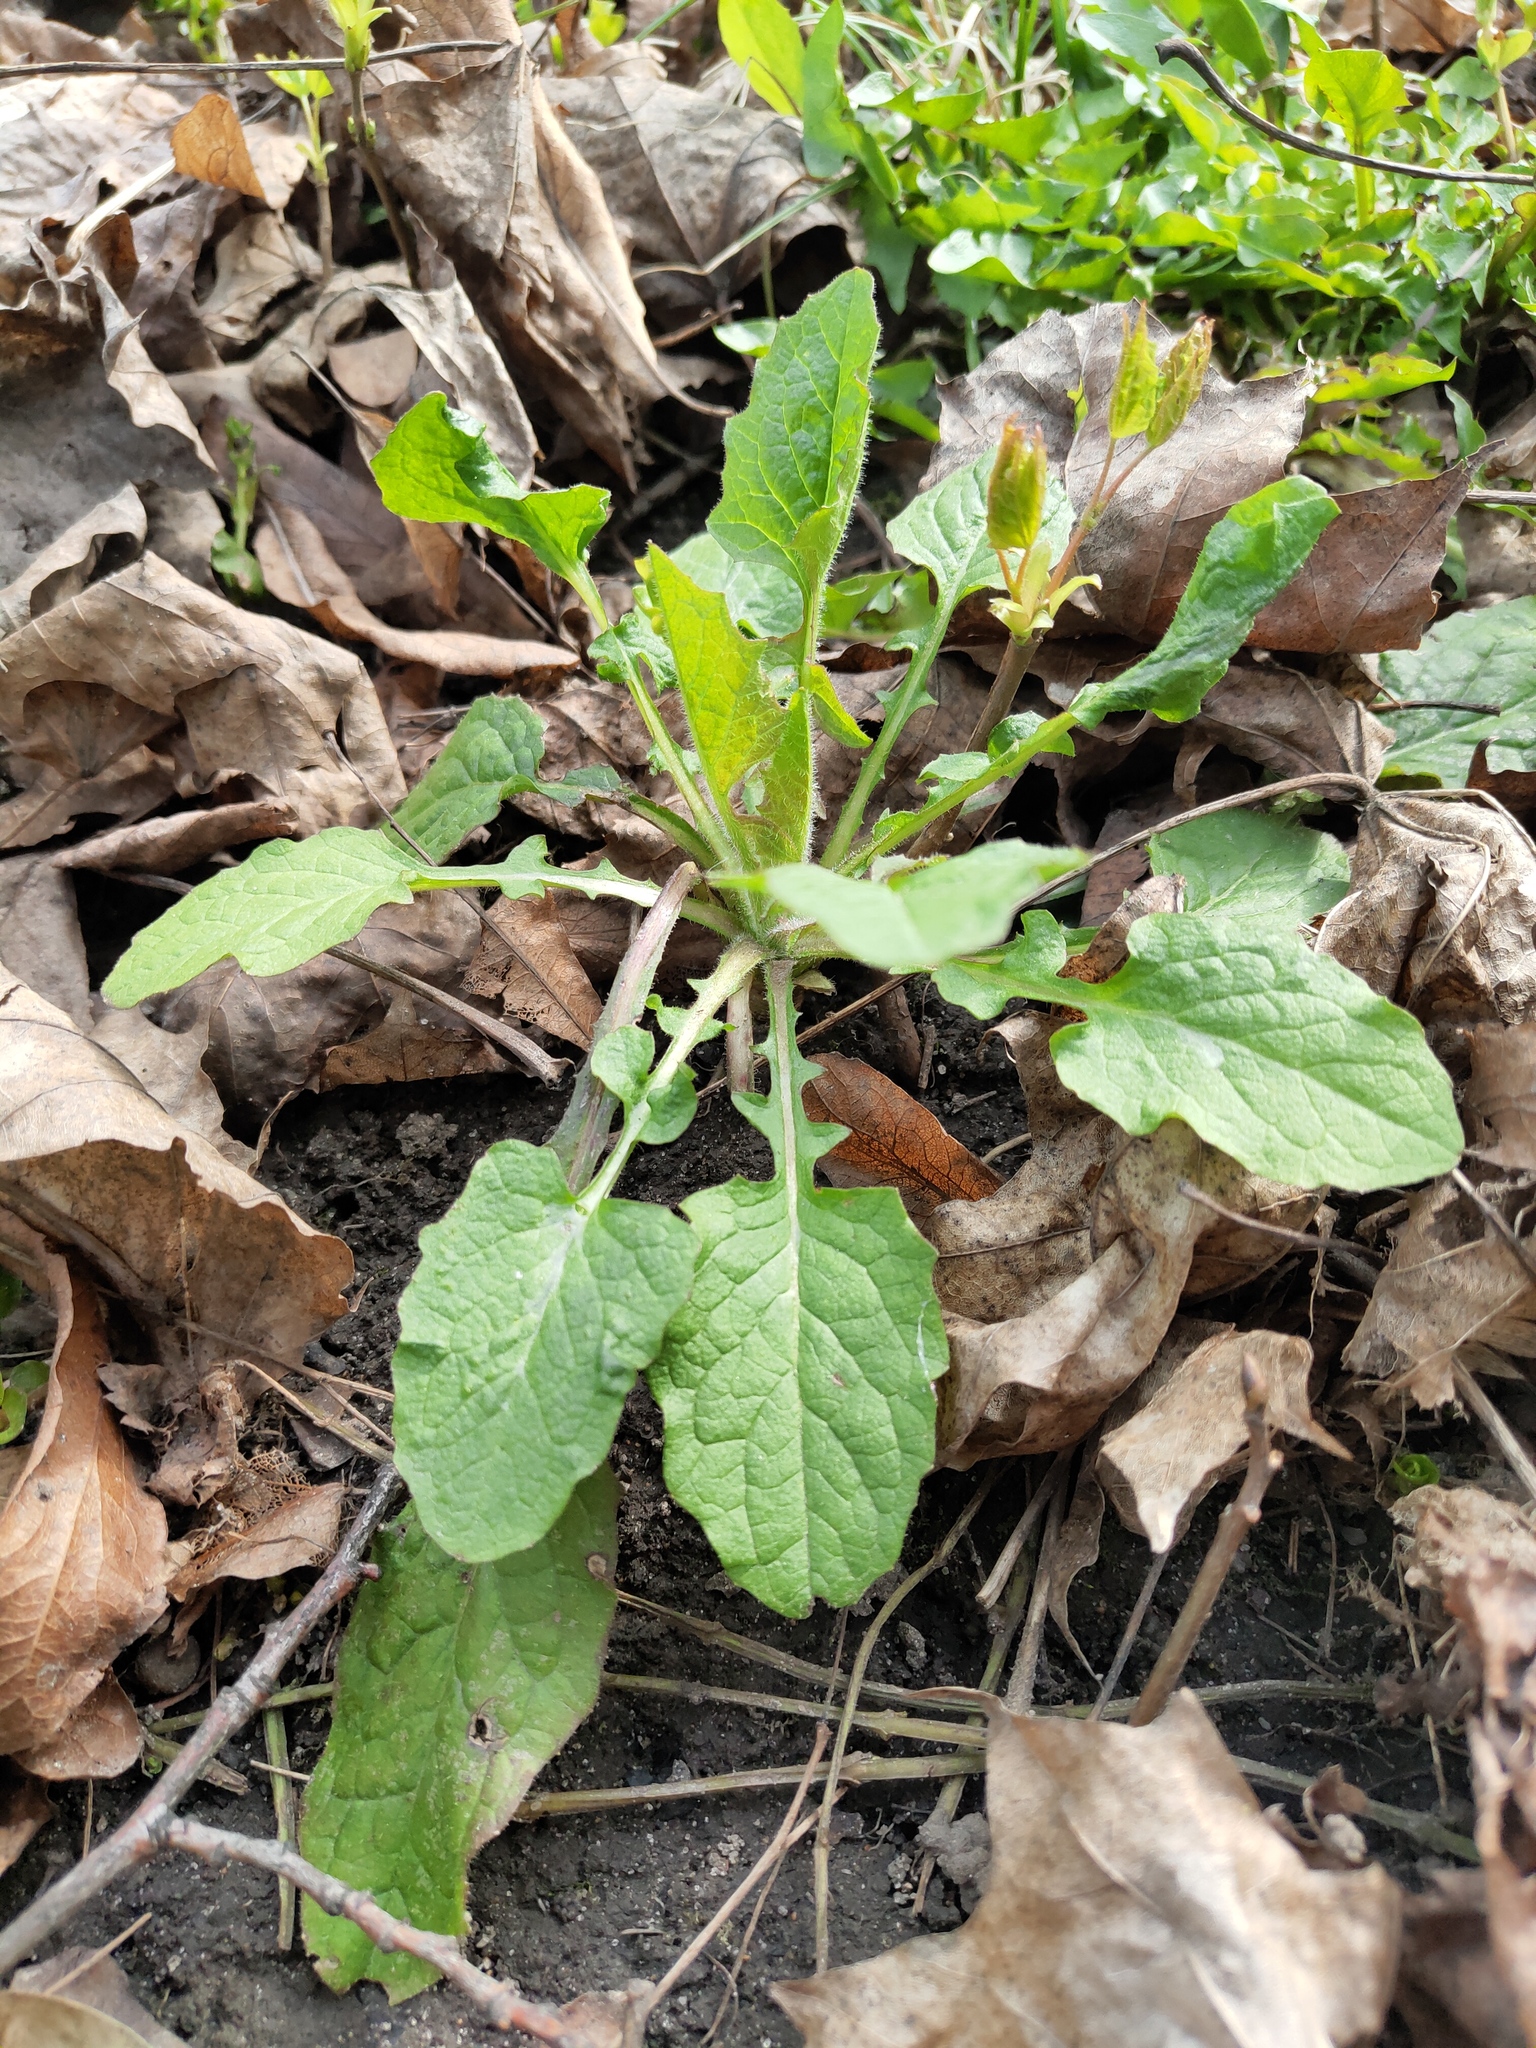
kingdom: Plantae
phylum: Tracheophyta
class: Magnoliopsida
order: Asterales
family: Asteraceae
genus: Lapsana
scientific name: Lapsana communis
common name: Nipplewort
